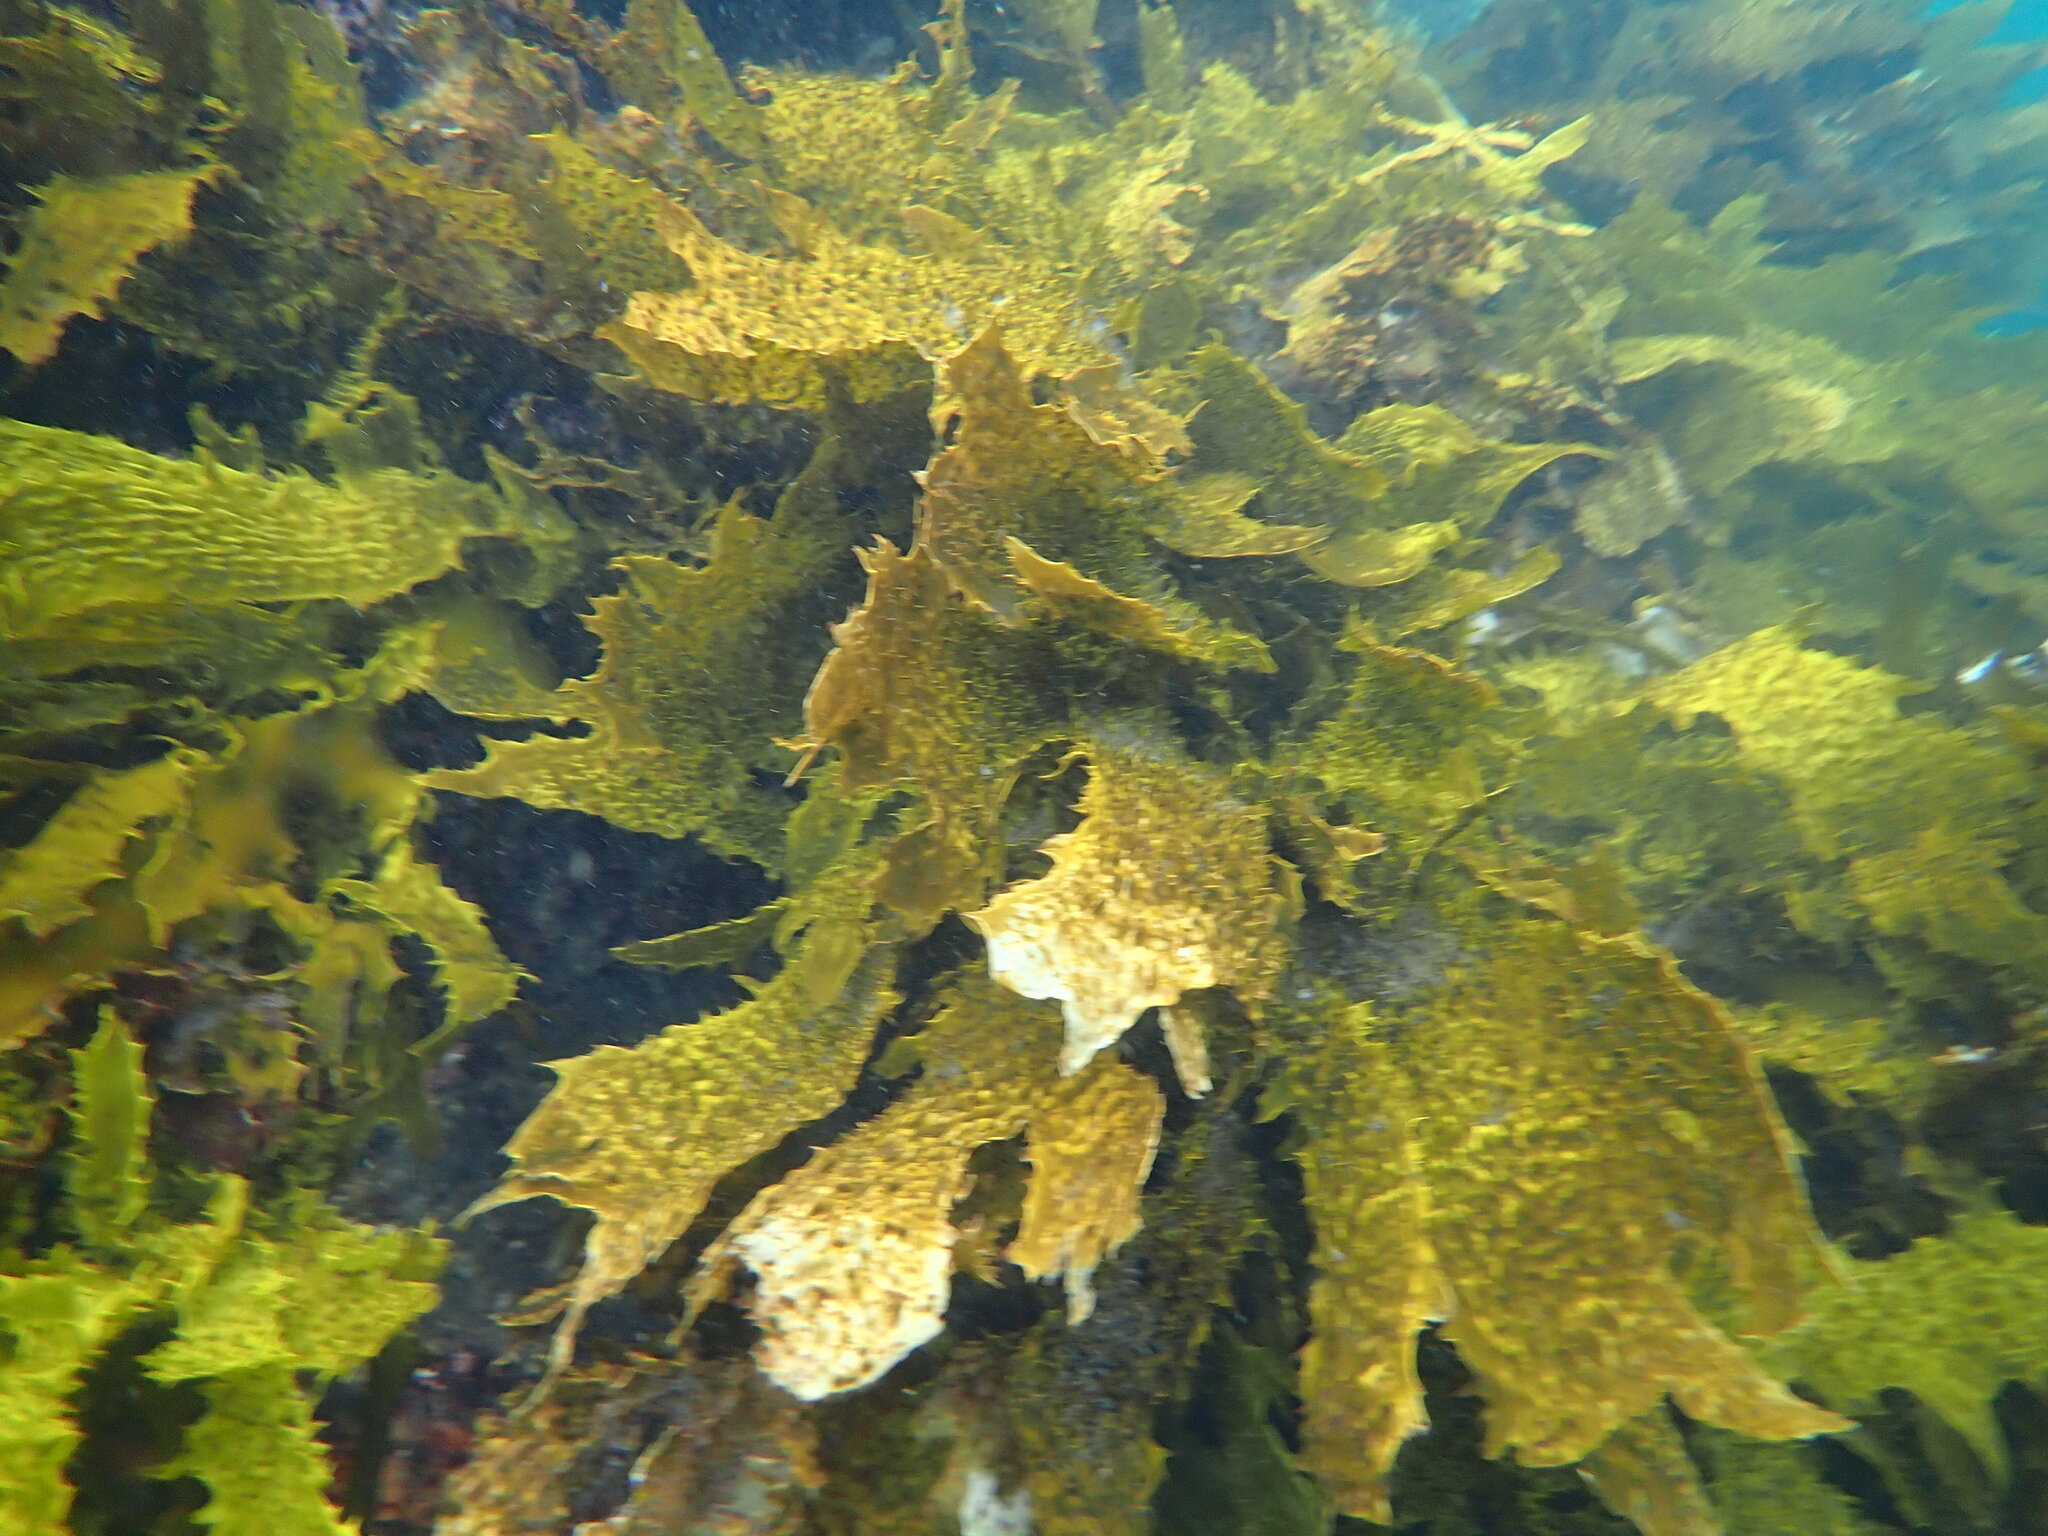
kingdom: Chromista
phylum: Ochrophyta
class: Phaeophyceae
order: Laminariales
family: Lessoniaceae
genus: Ecklonia
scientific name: Ecklonia radiata
